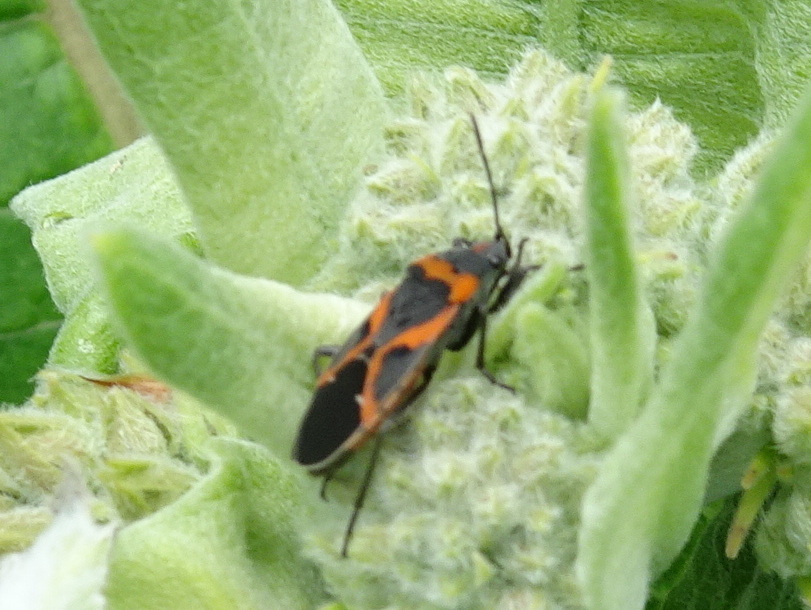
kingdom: Animalia
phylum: Arthropoda
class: Insecta
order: Hemiptera
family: Lygaeidae
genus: Lygaeus
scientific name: Lygaeus kalmii
